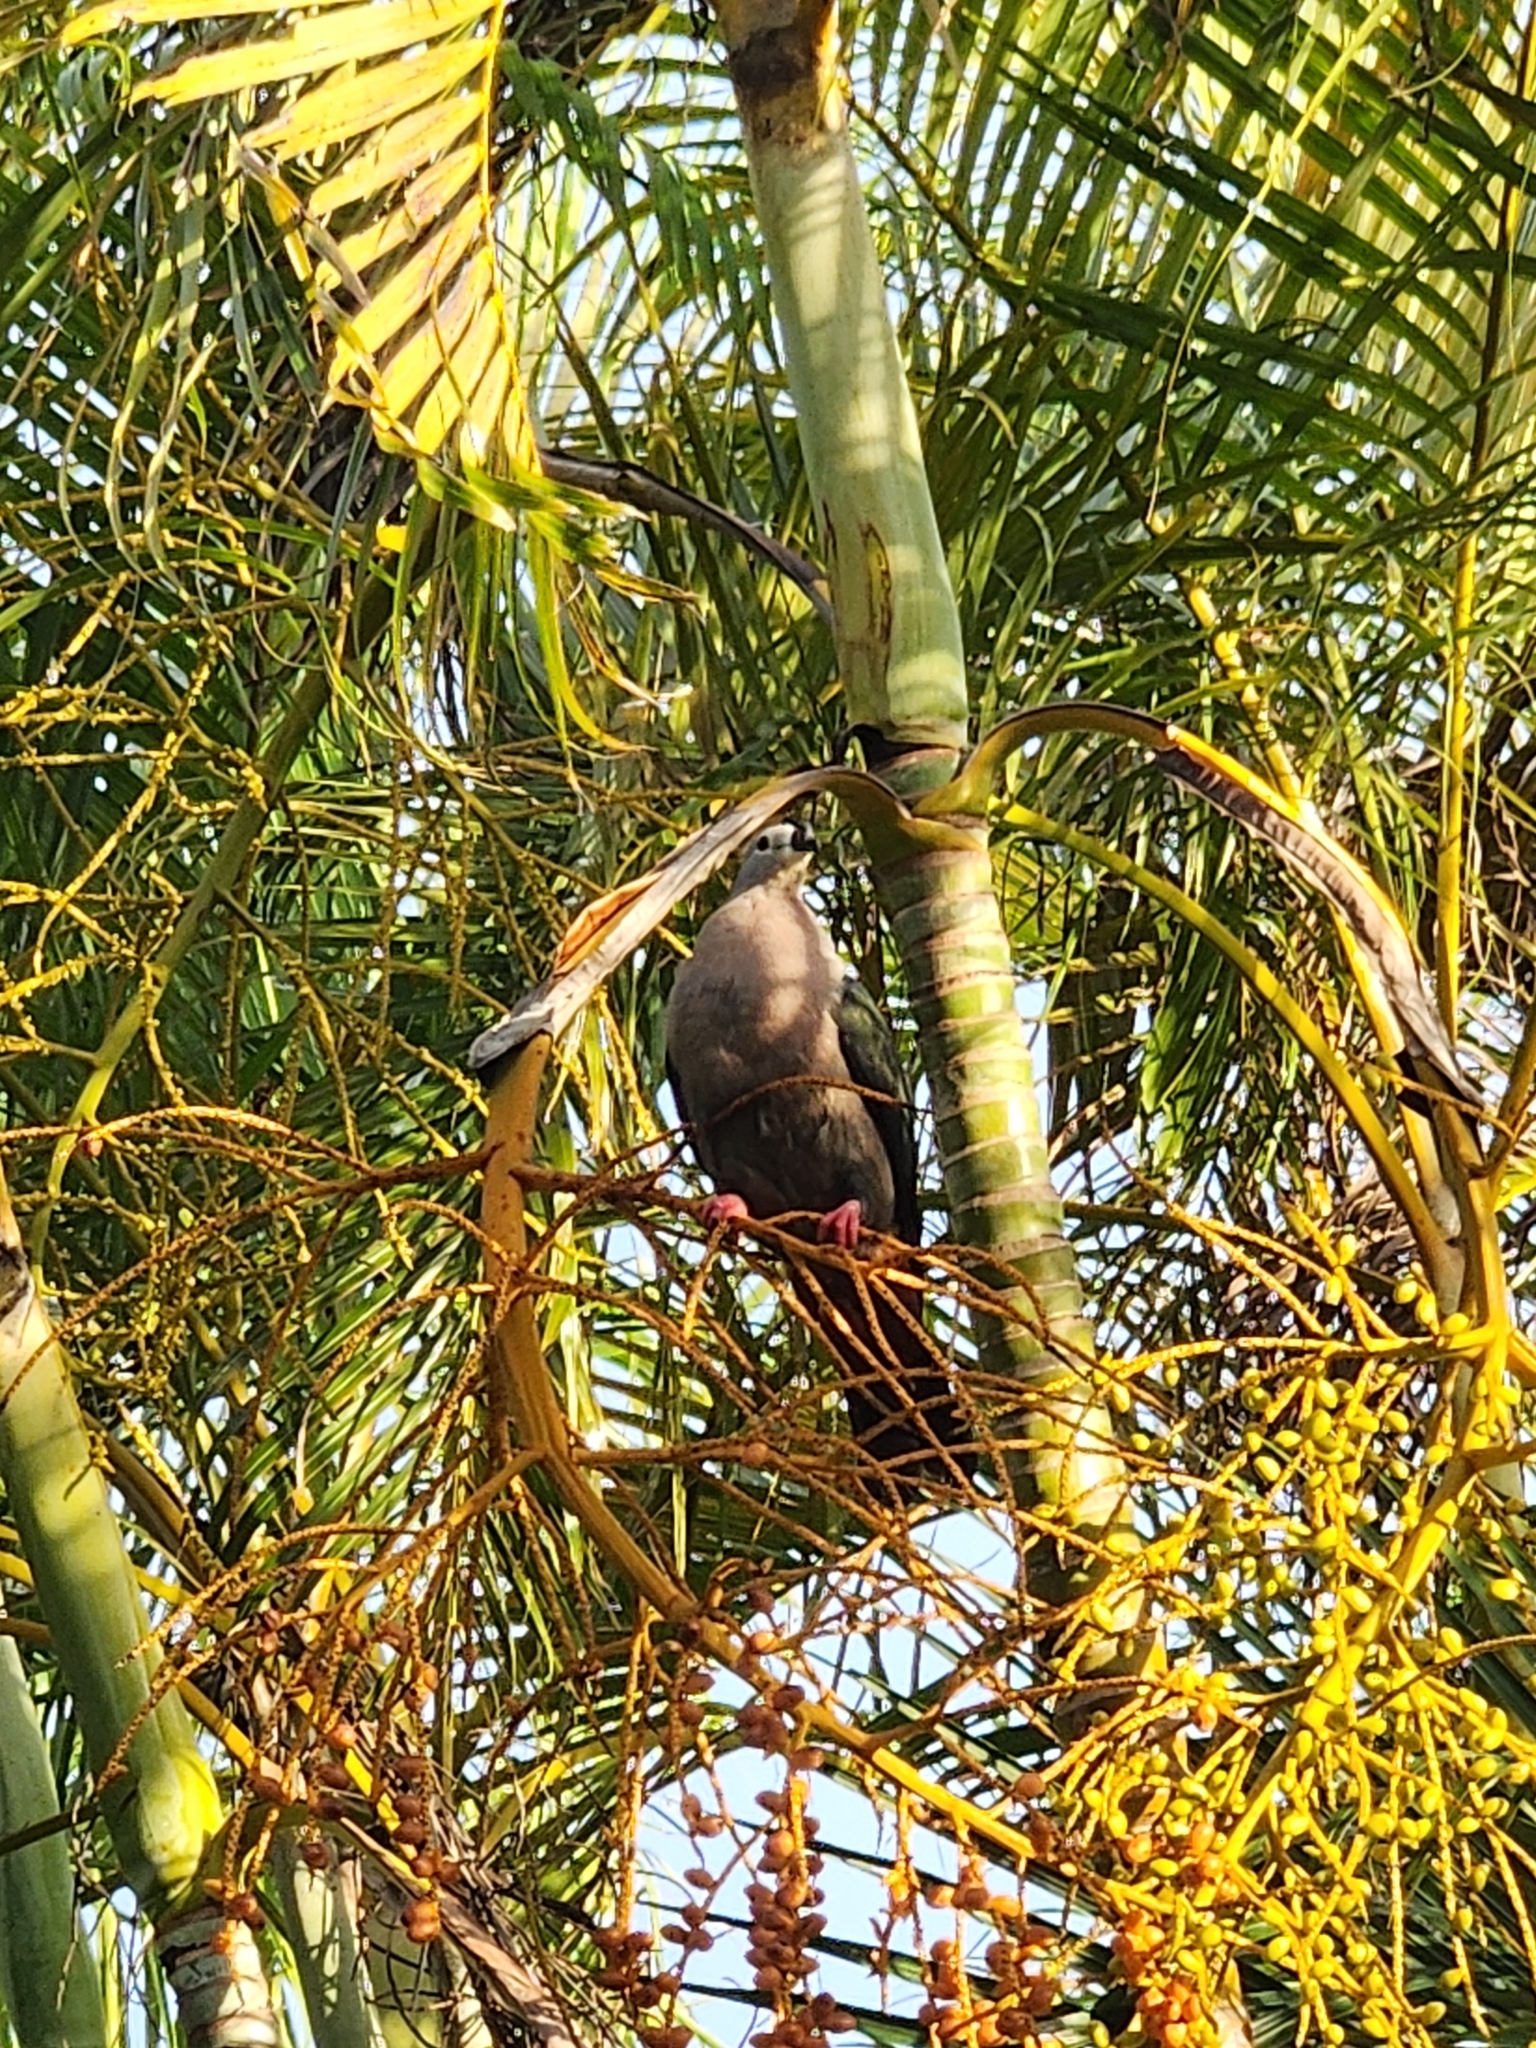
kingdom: Animalia
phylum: Chordata
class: Aves
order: Columbiformes
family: Columbidae
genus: Ducula
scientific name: Ducula pacifica
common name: Pacific imperial-pigeon
